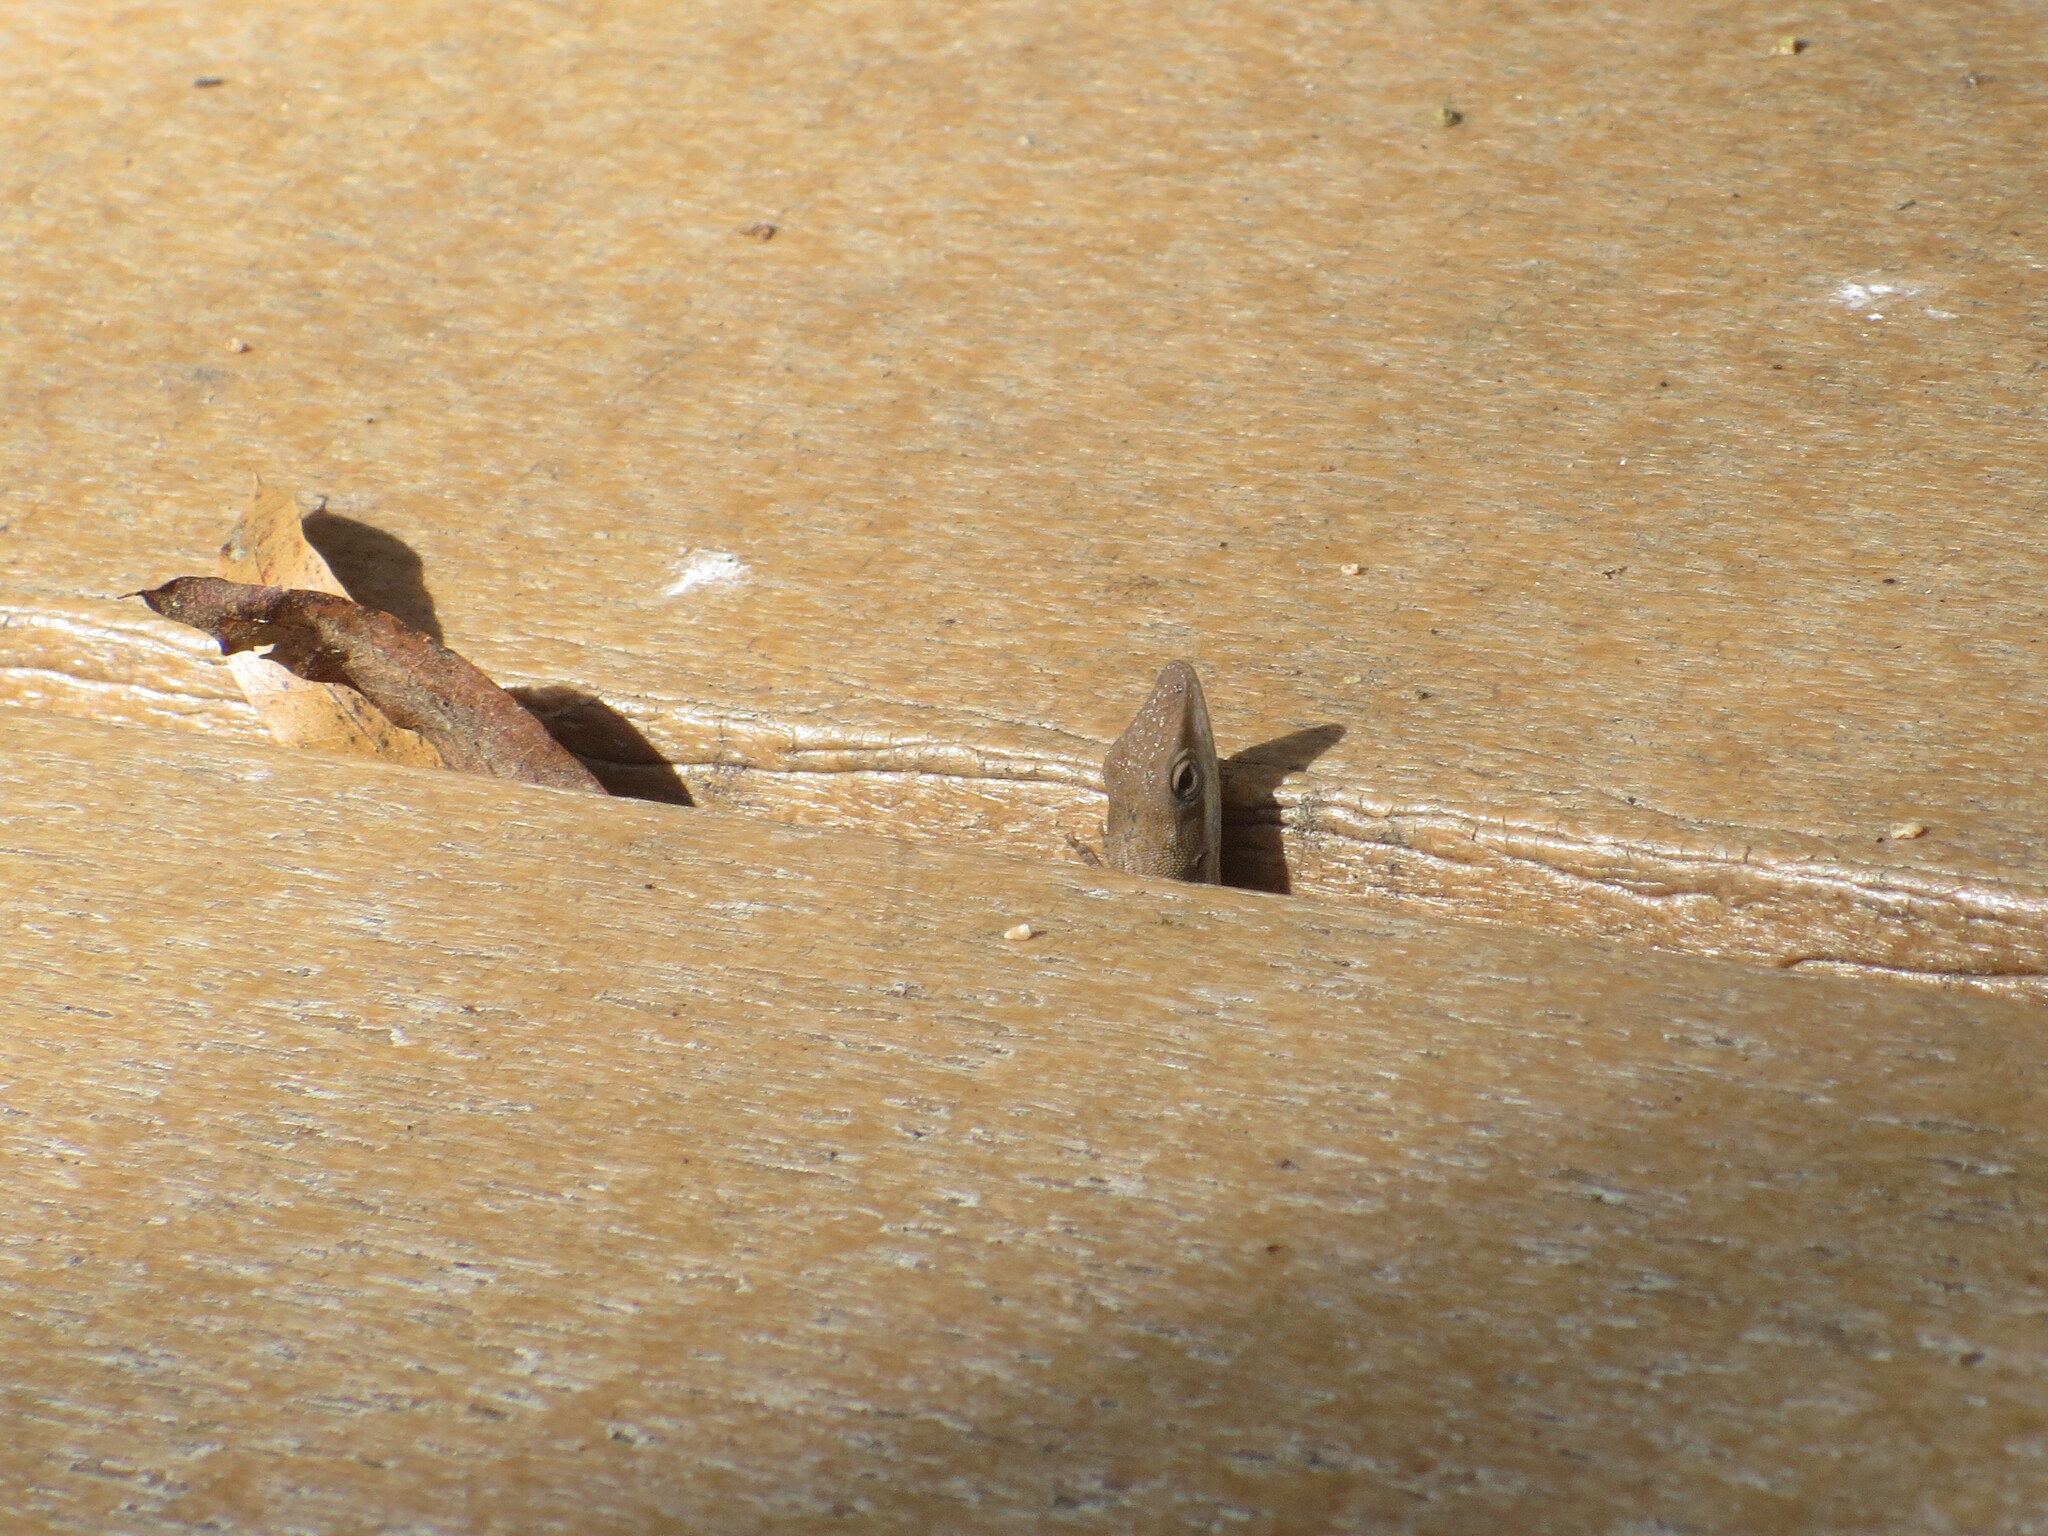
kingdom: Animalia
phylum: Chordata
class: Squamata
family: Dactyloidae
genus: Anolis
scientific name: Anolis carolinensis
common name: Green anole
